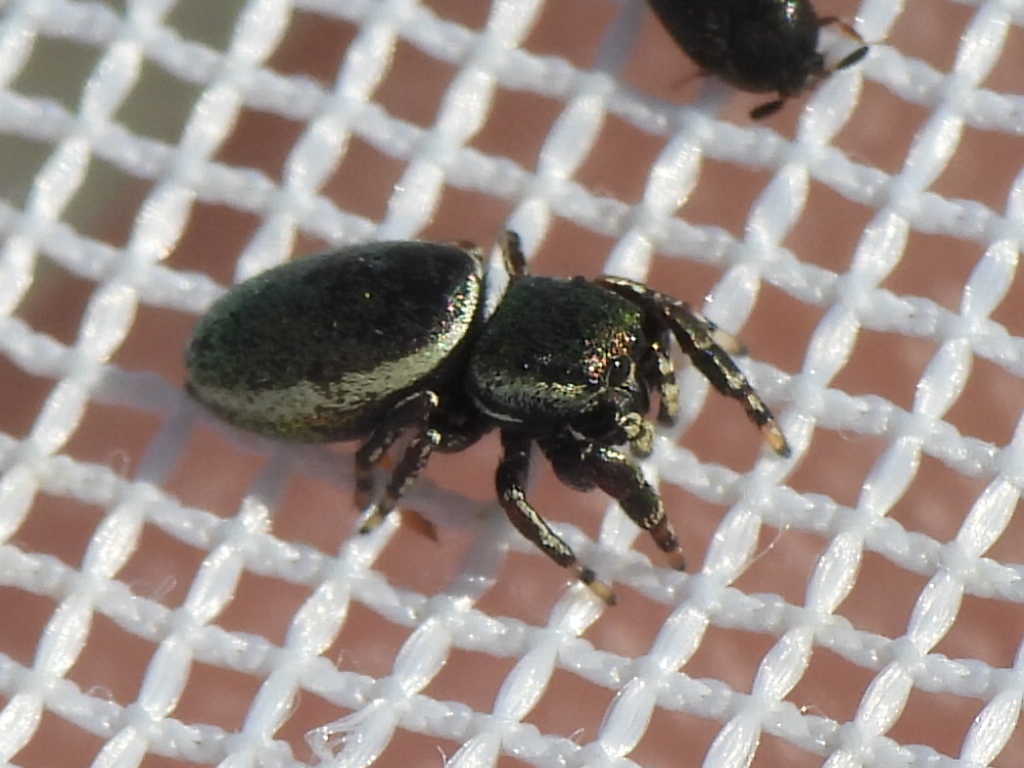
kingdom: Animalia
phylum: Arthropoda
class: Arachnida
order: Araneae
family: Salticidae
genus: Sassacus
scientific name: Sassacus papenhoei
